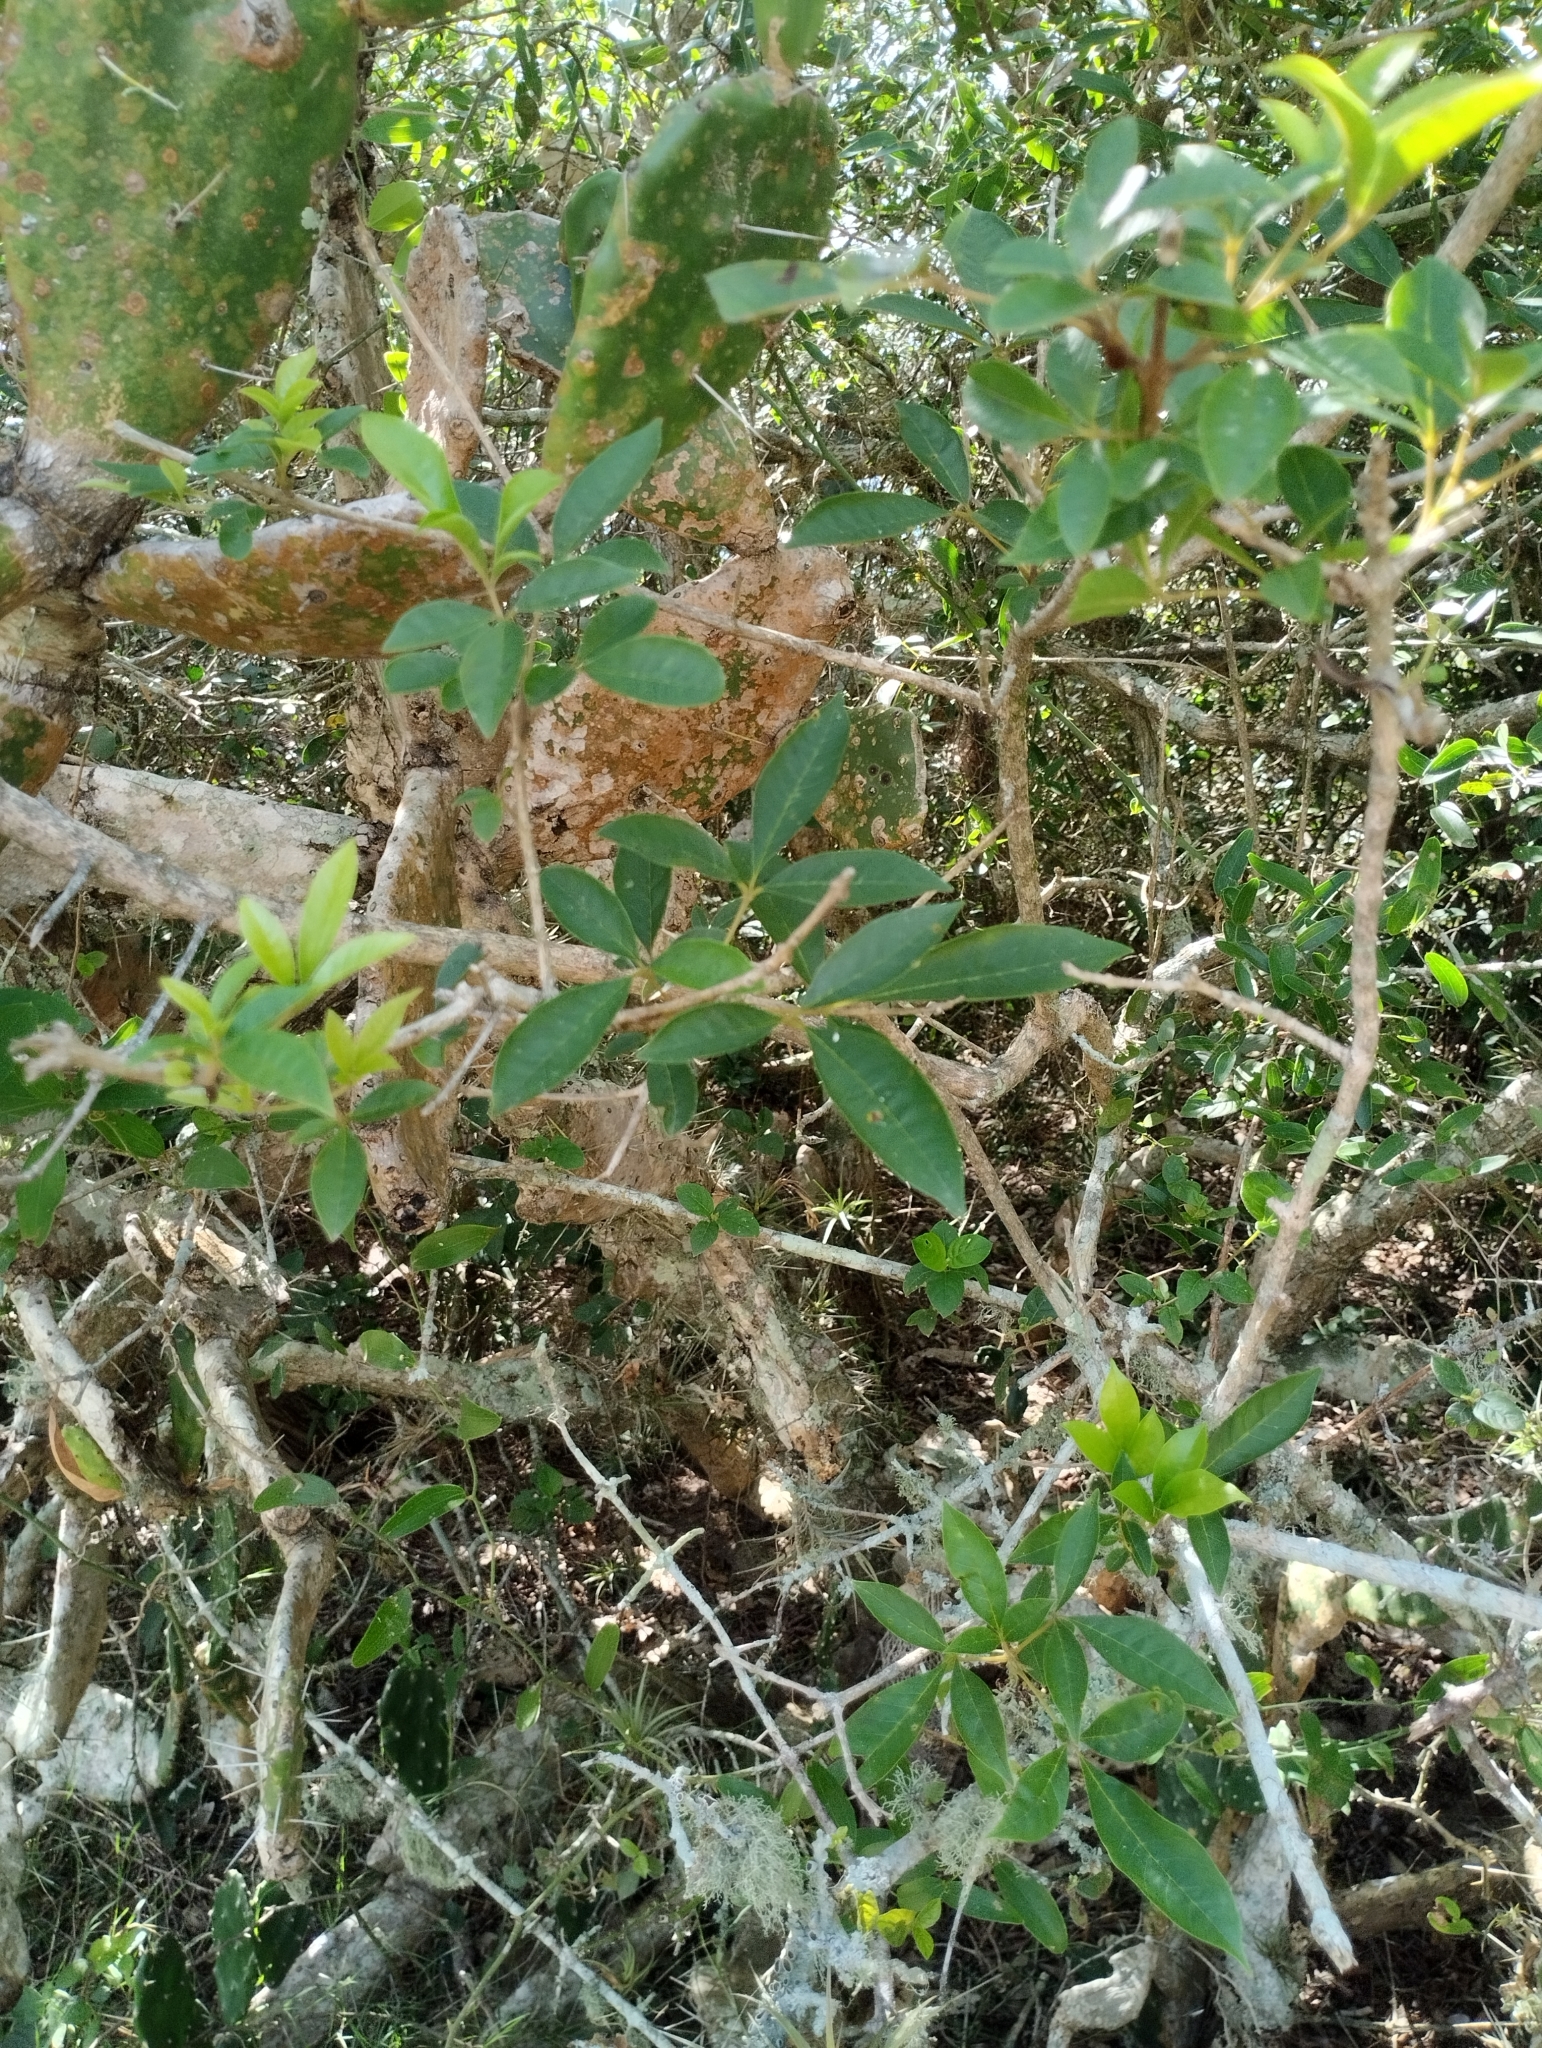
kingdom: Plantae
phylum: Tracheophyta
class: Magnoliopsida
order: Lamiales
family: Lamiaceae
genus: Vitex
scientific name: Vitex megapotamica
